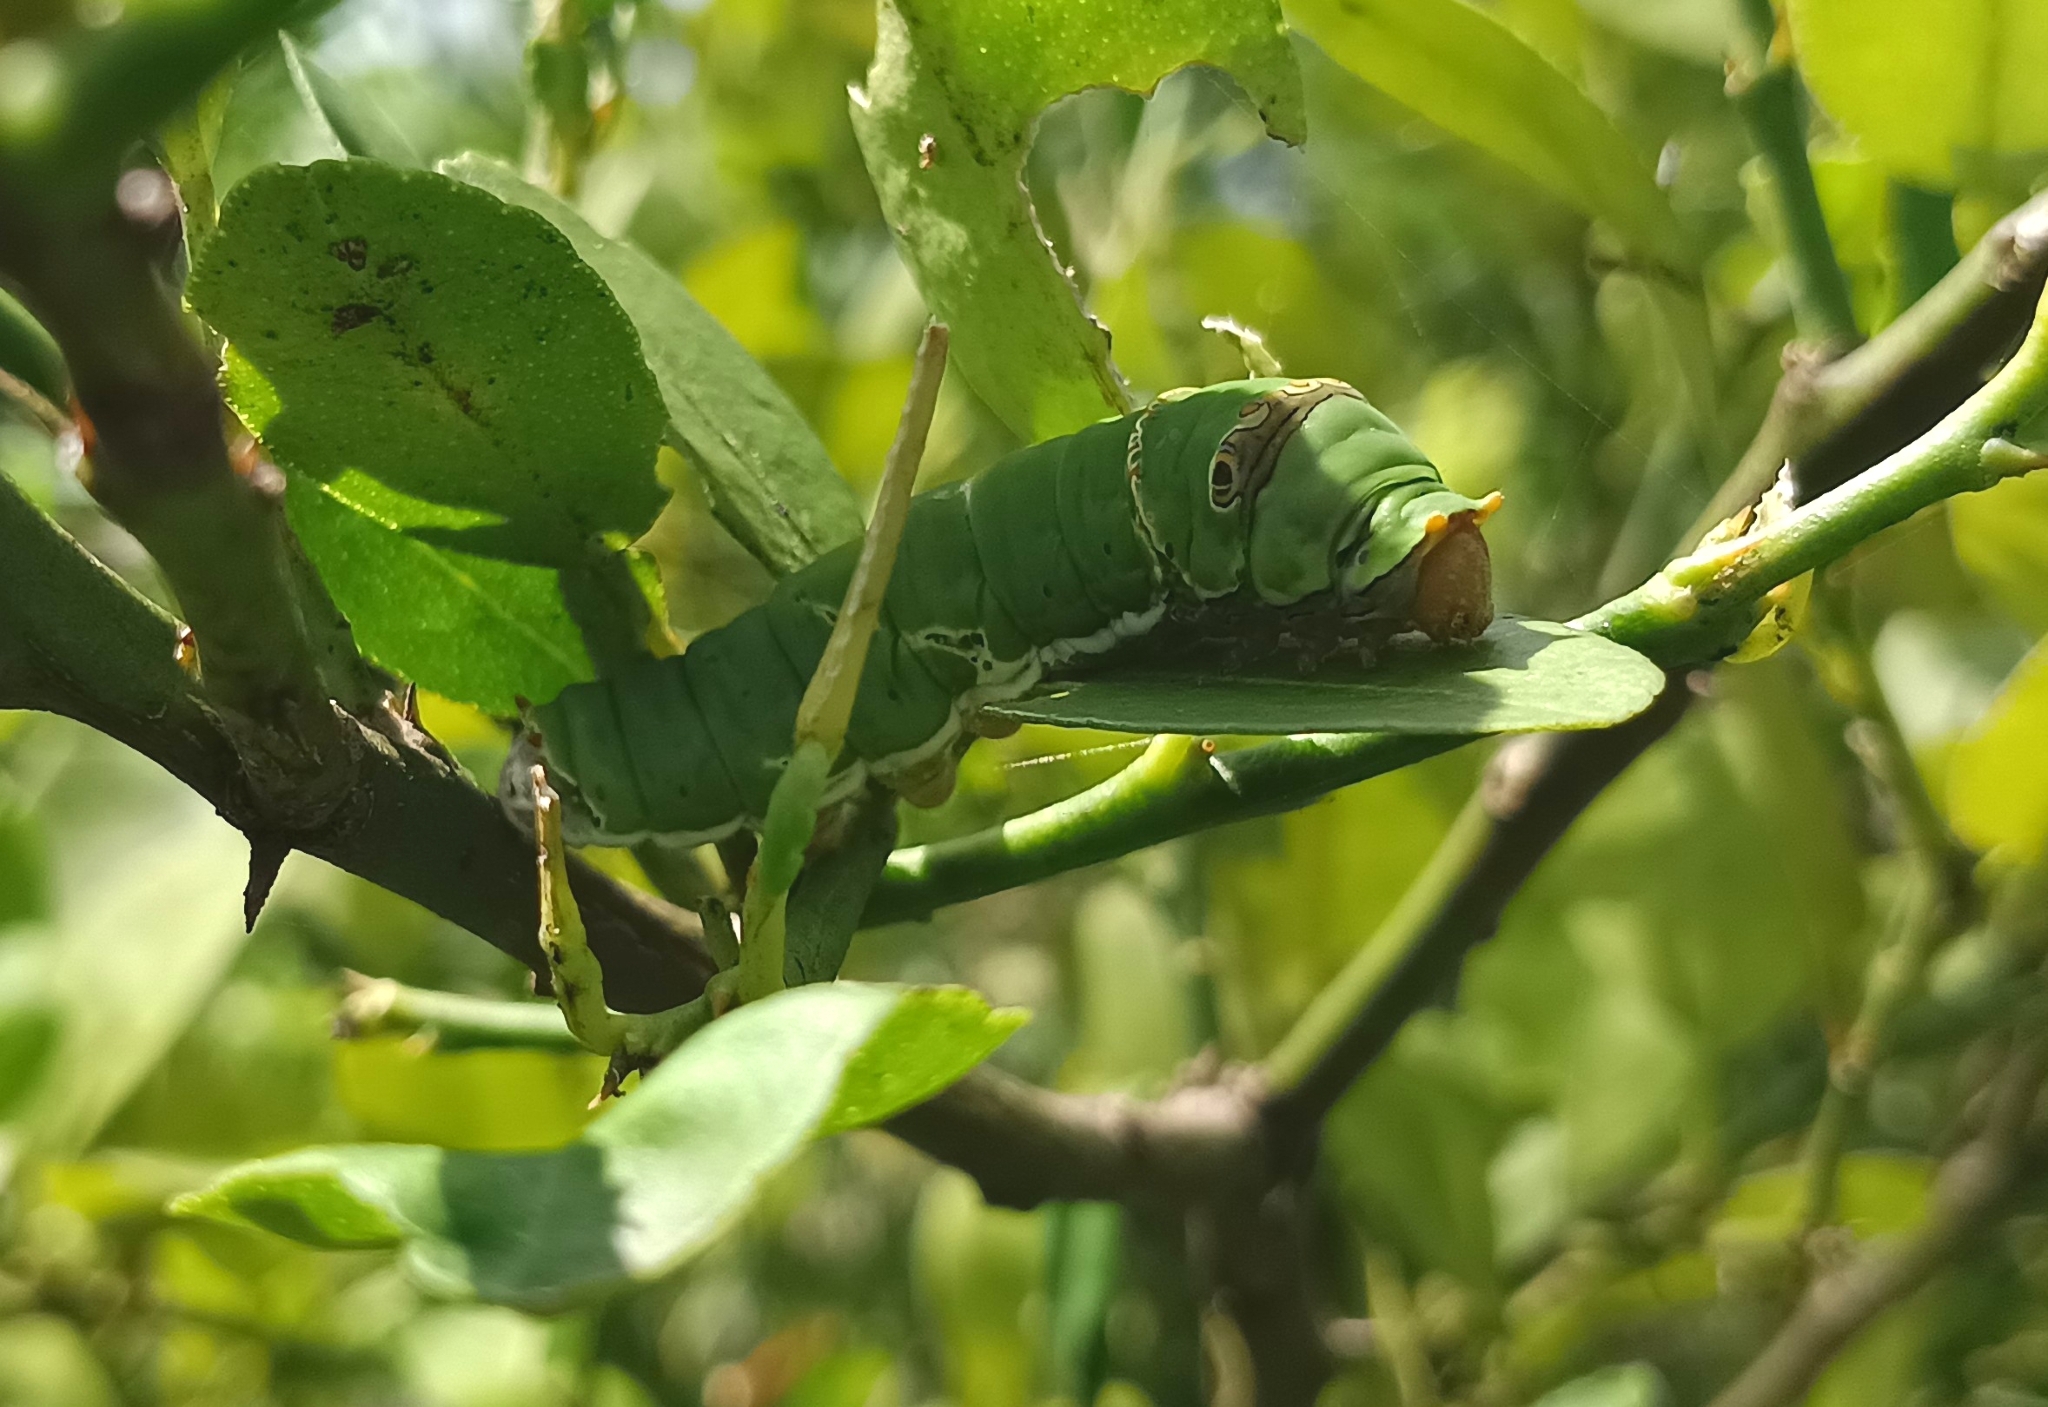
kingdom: Animalia
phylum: Arthropoda
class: Insecta
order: Lepidoptera
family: Papilionidae
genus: Papilio
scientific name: Papilio demoleus
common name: Lime butterfly
